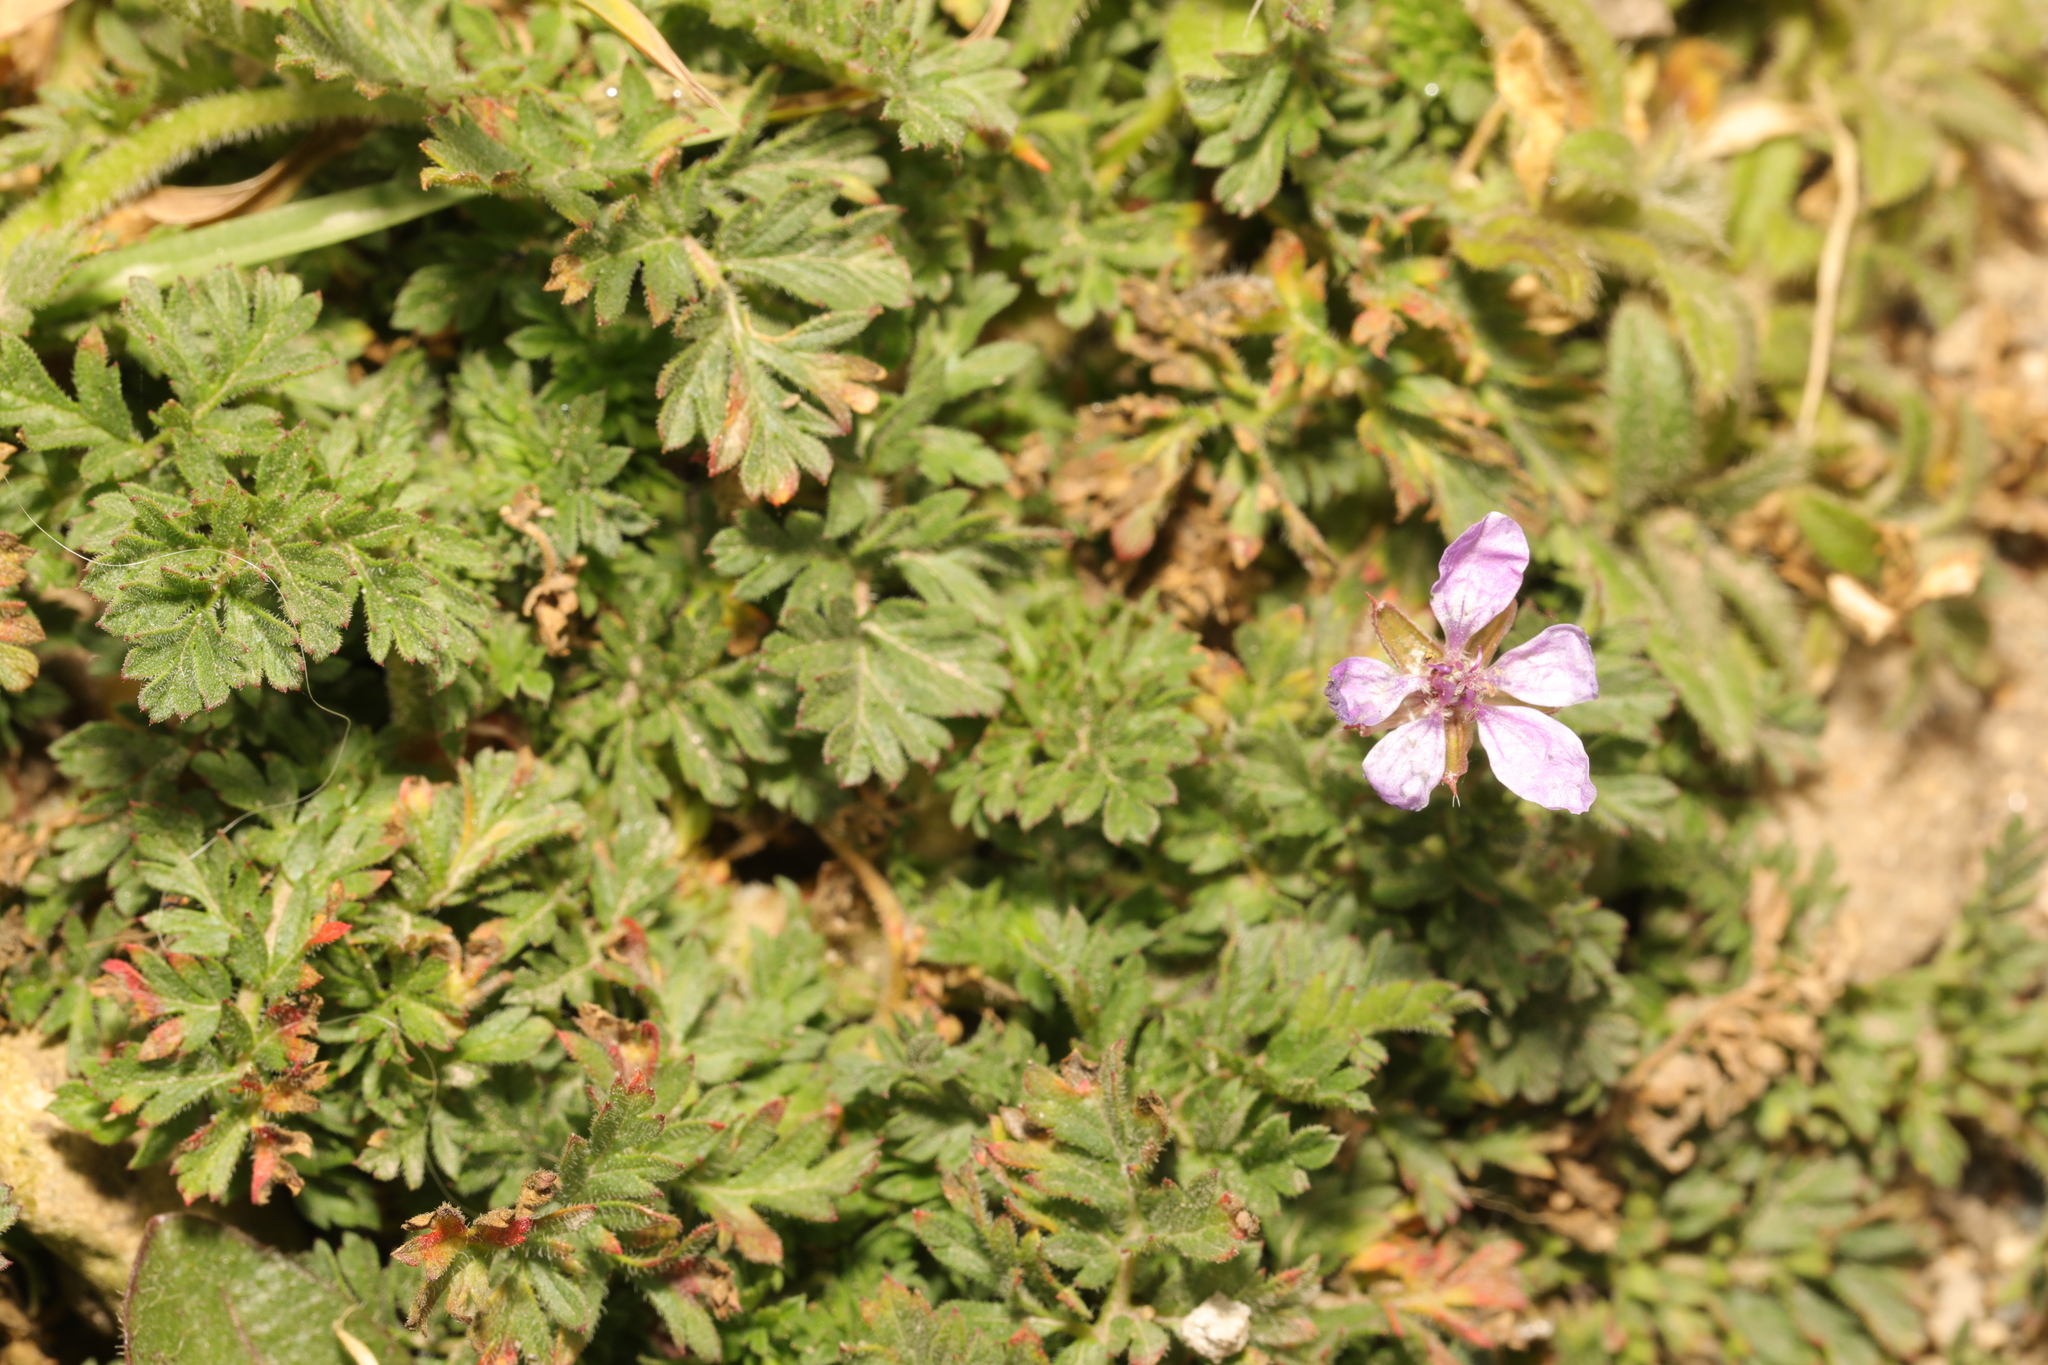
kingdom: Plantae
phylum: Tracheophyta
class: Magnoliopsida
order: Geraniales
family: Geraniaceae
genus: Erodium
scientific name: Erodium cicutarium
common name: Common stork's-bill
